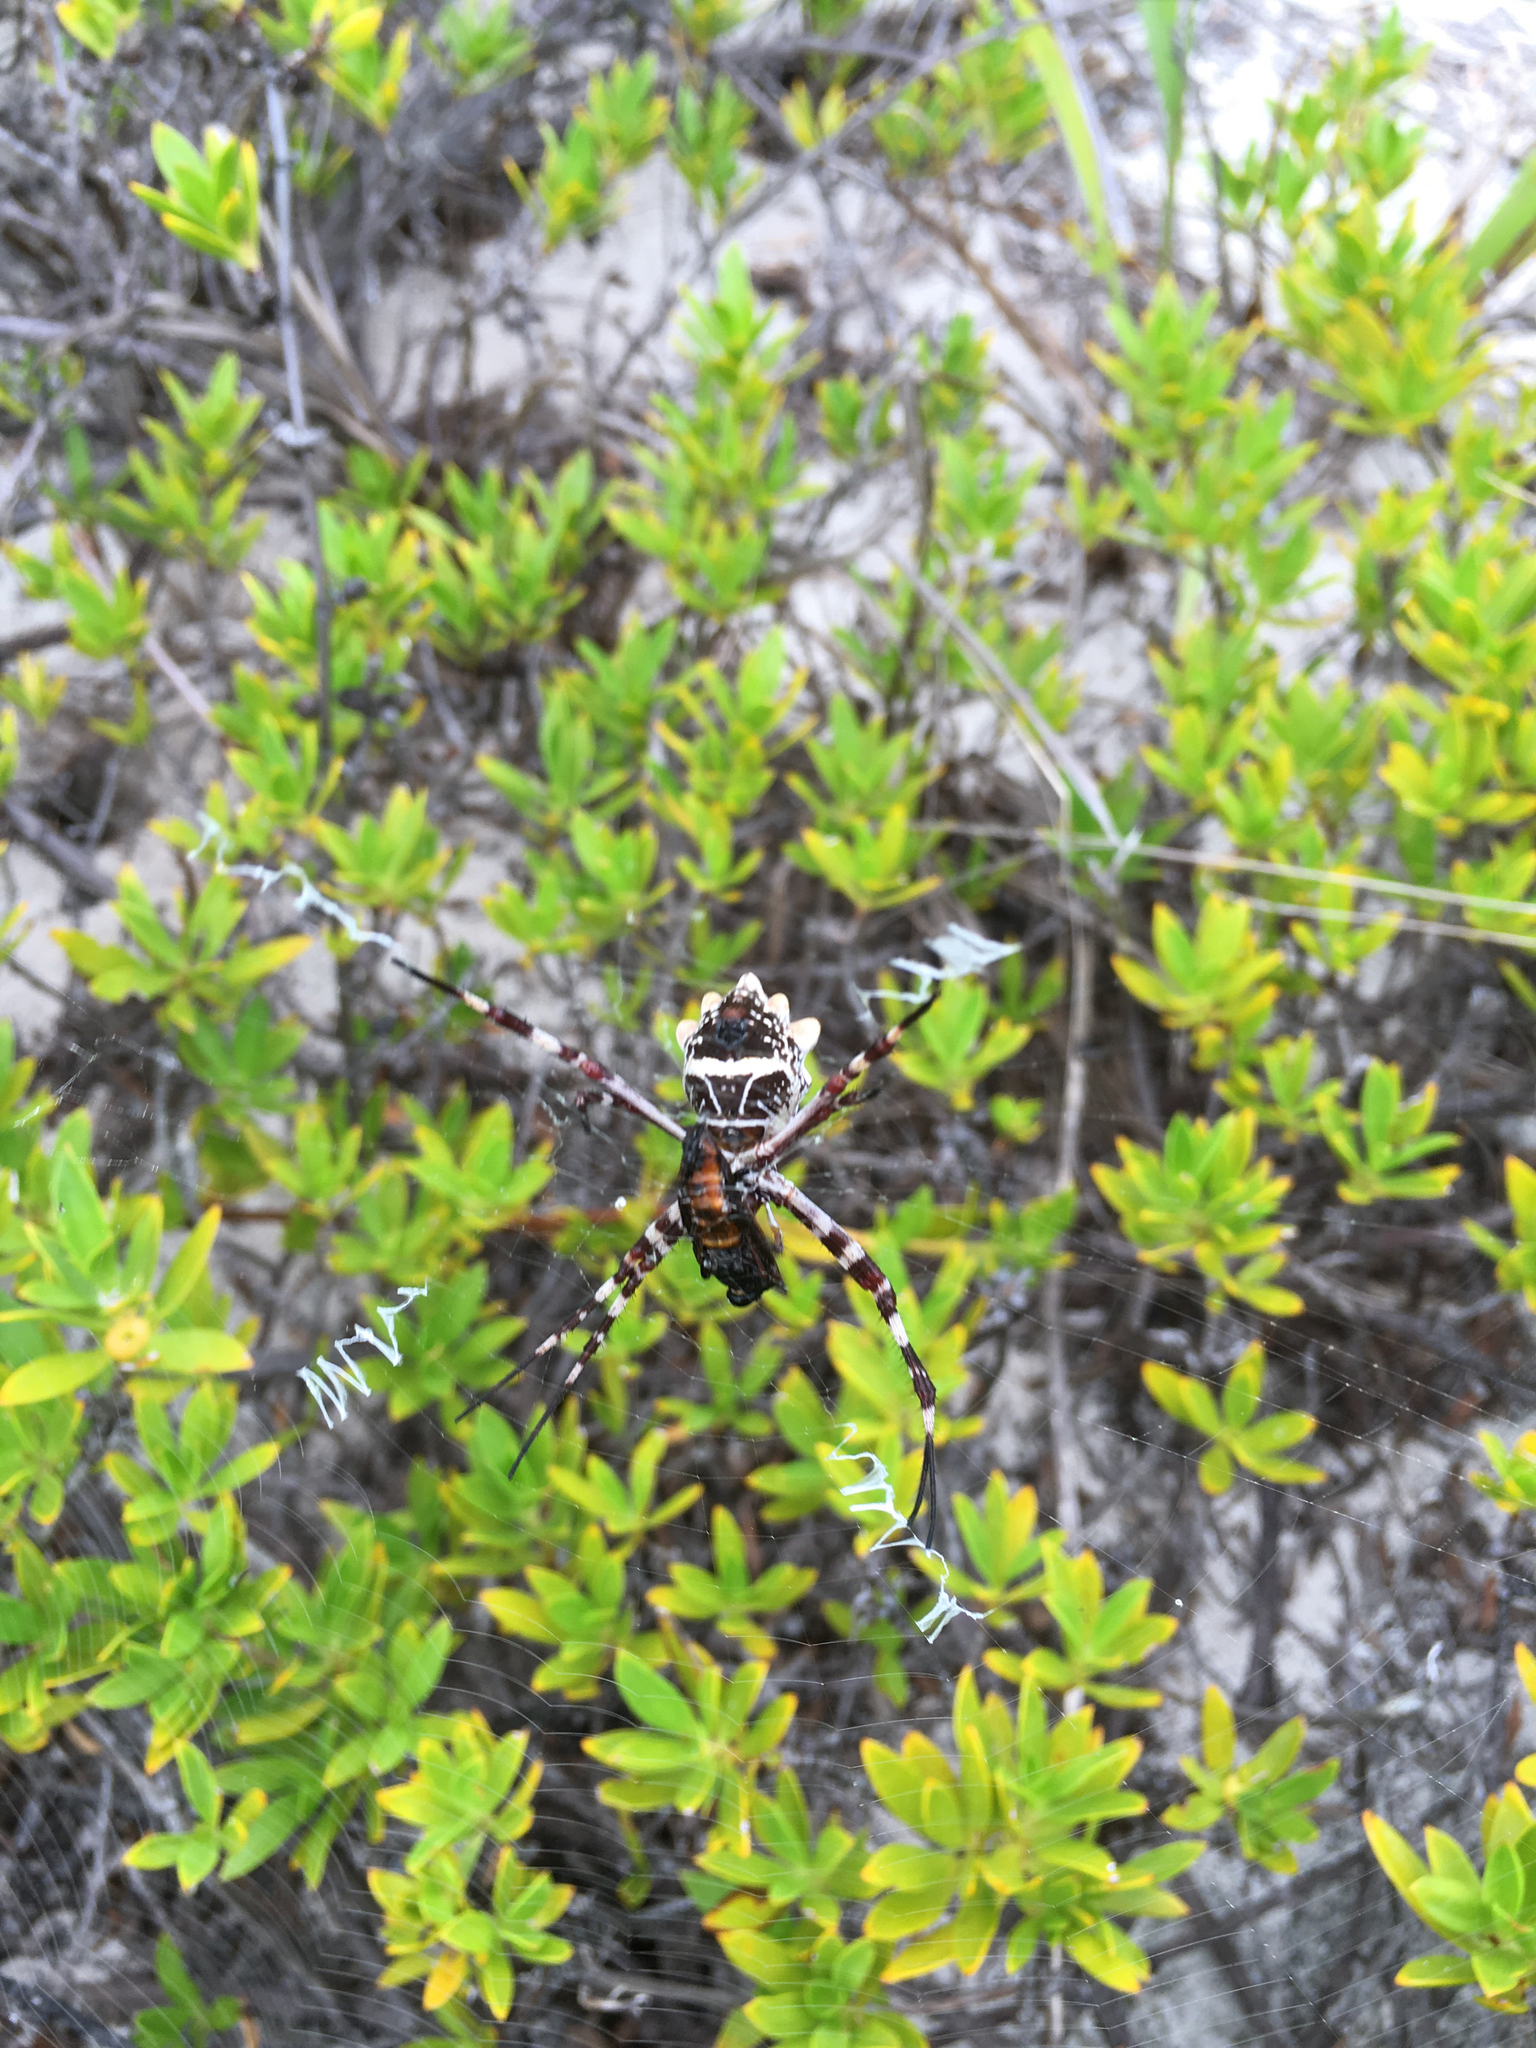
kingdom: Animalia
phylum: Arthropoda
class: Arachnida
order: Araneae
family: Araneidae
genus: Argiope
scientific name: Argiope argentata
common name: Orb weavers
